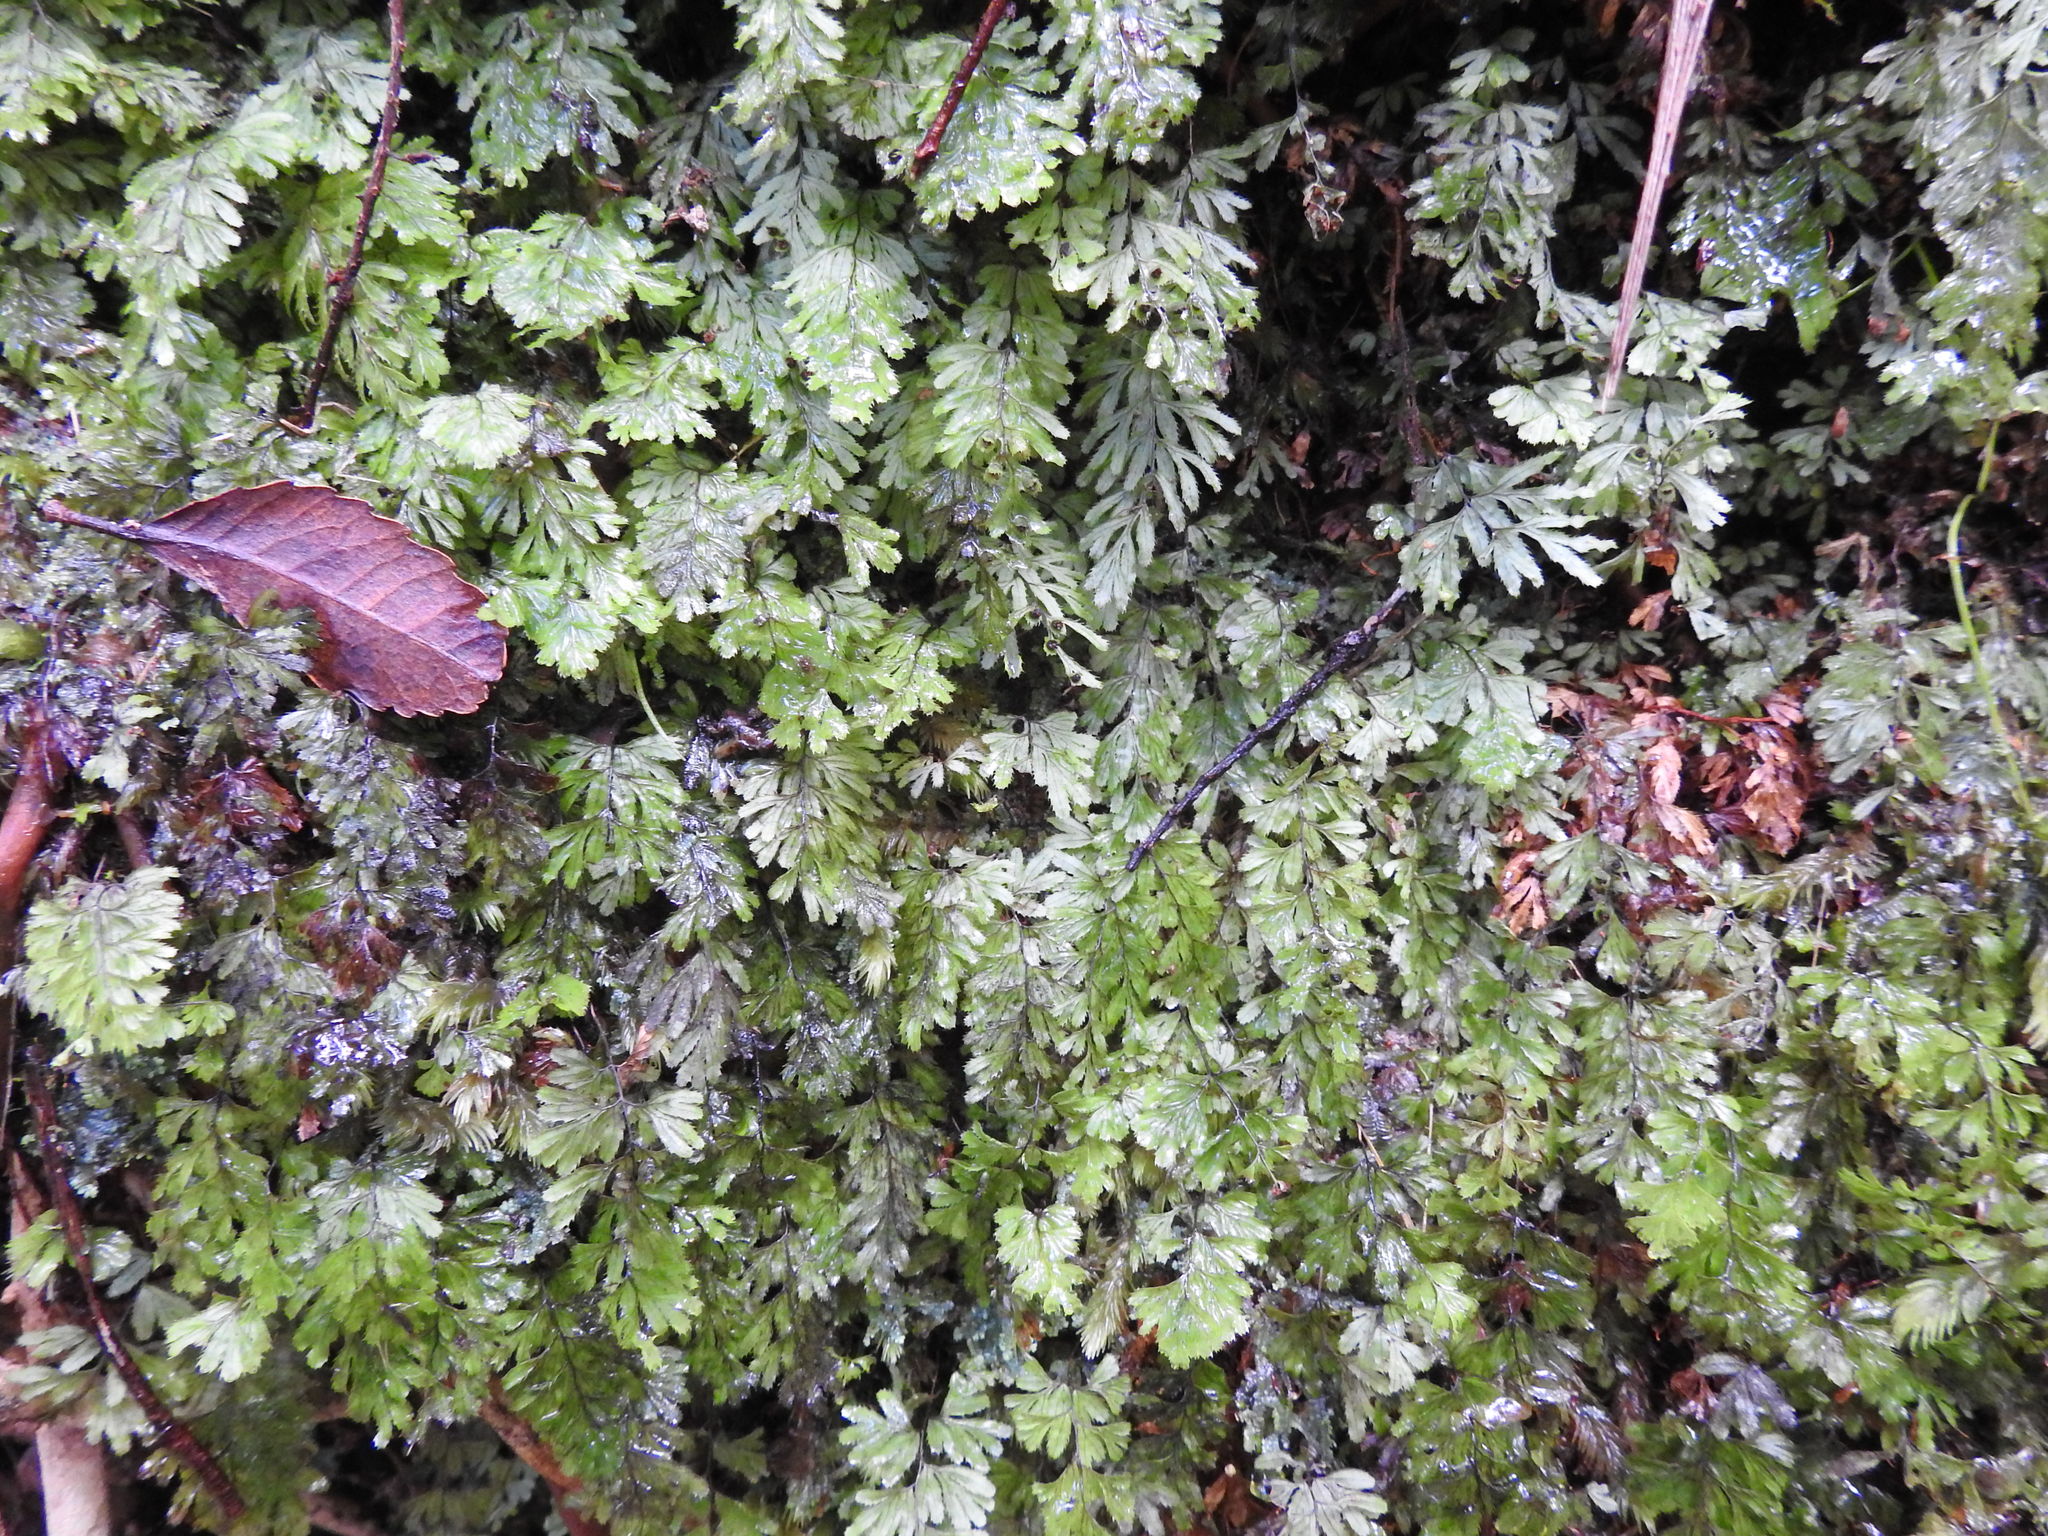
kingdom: Plantae
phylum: Tracheophyta
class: Polypodiopsida
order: Hymenophyllales
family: Hymenophyllaceae
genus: Hymenophyllum
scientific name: Hymenophyllum revolutum
